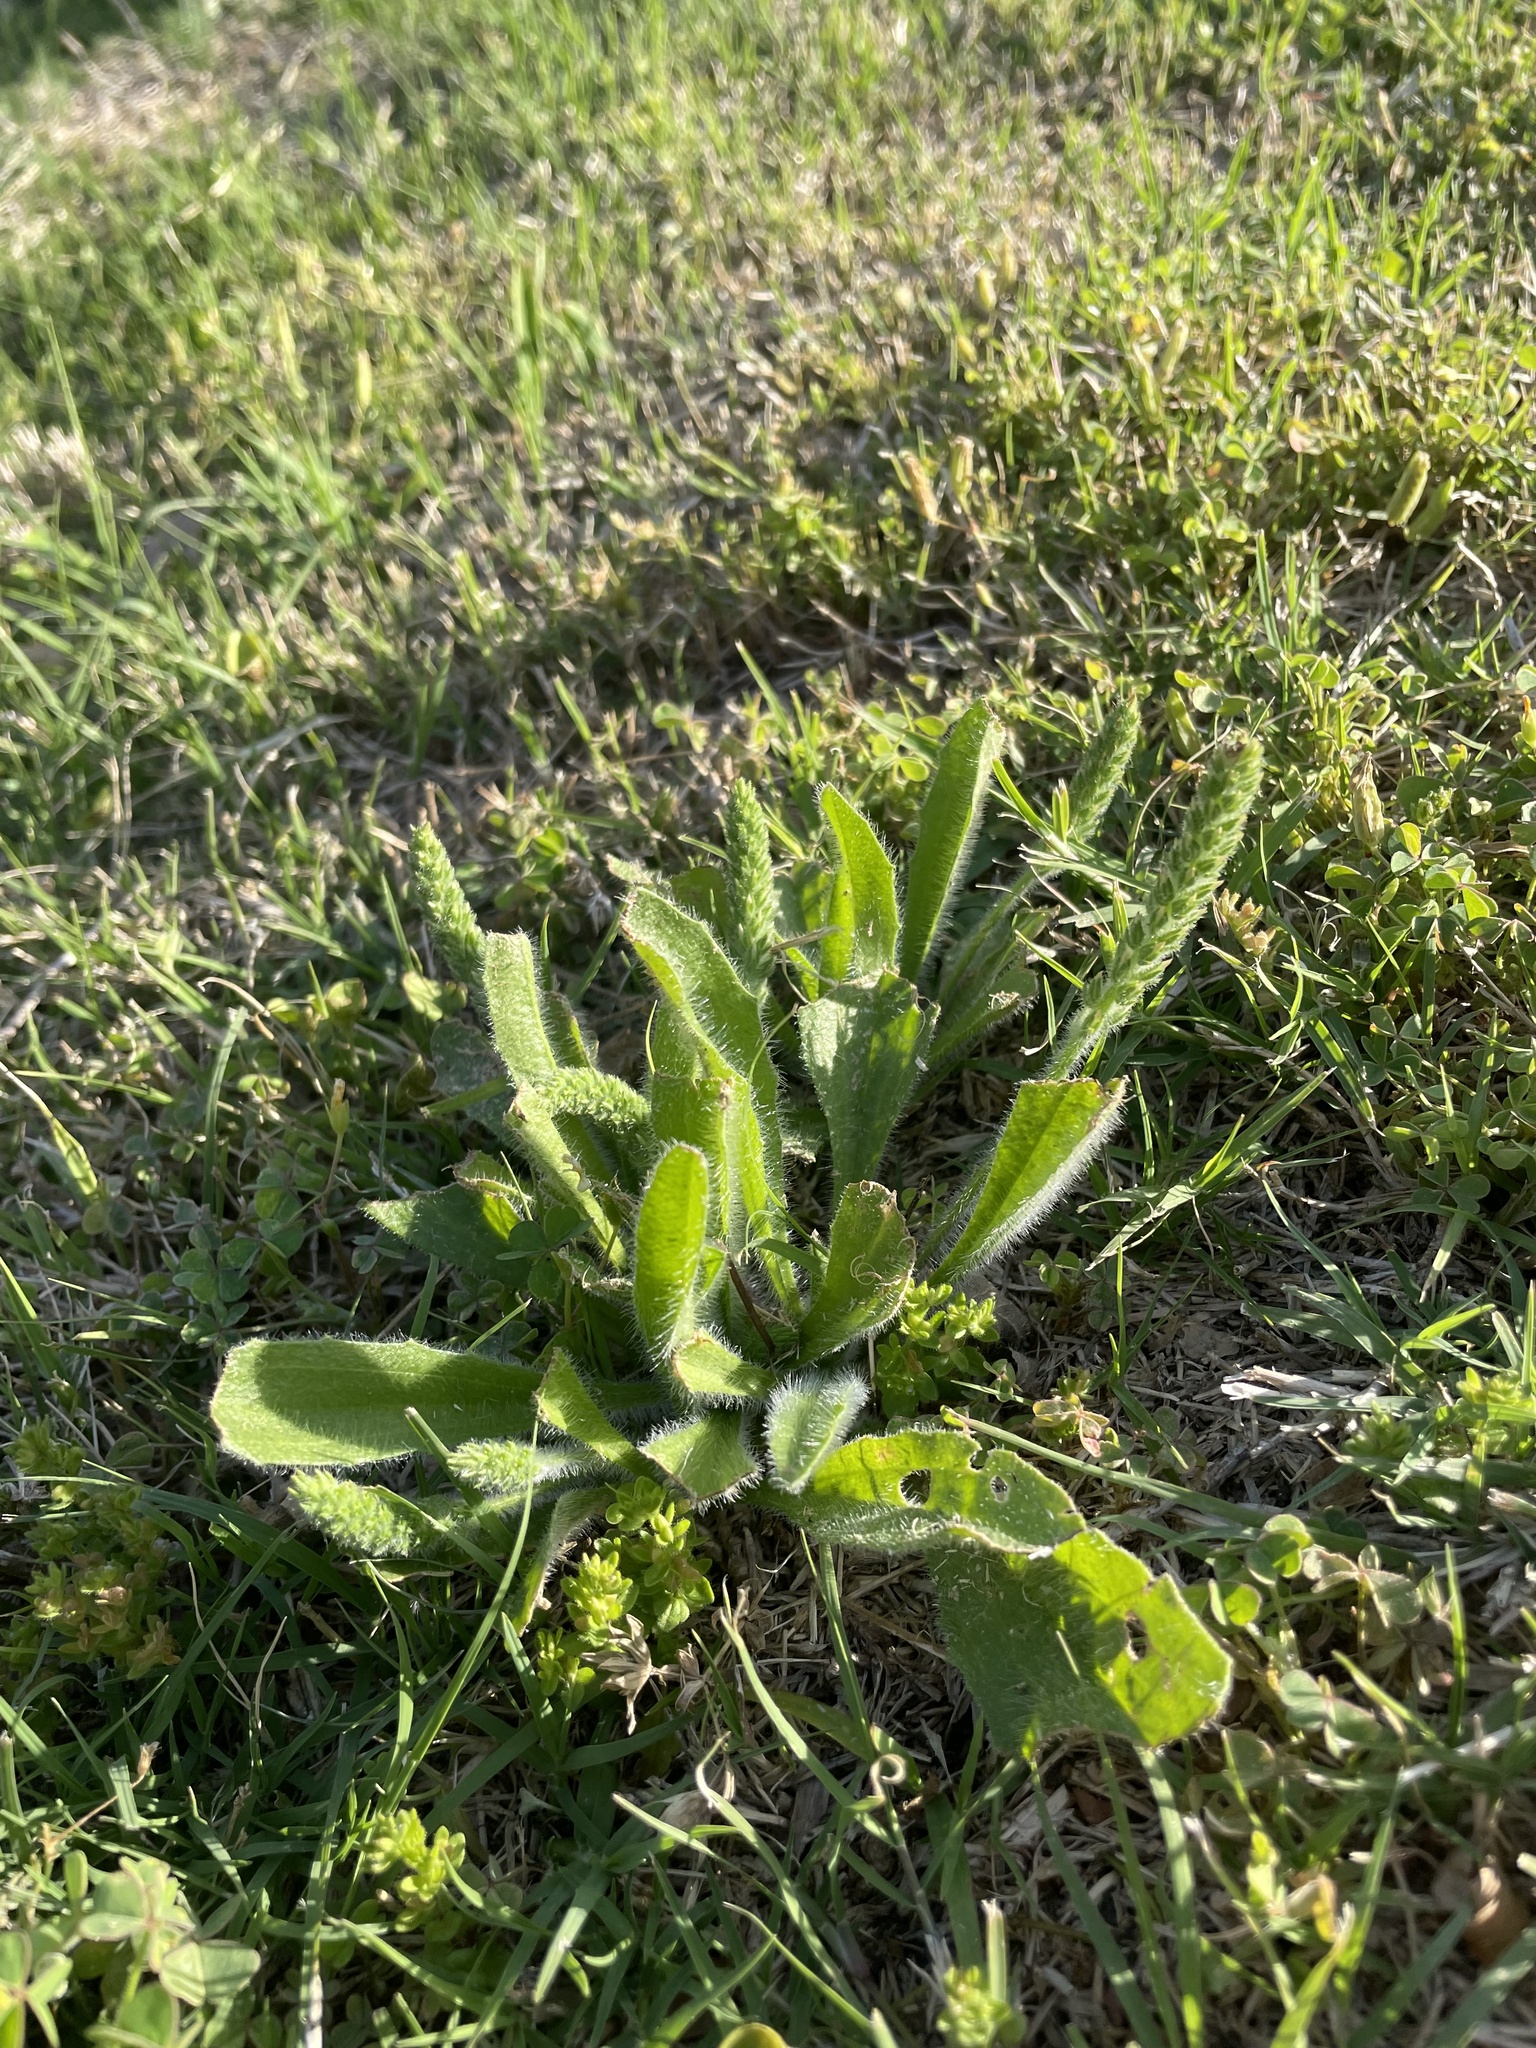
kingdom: Plantae
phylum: Tracheophyta
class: Magnoliopsida
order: Lamiales
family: Plantaginaceae
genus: Plantago
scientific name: Plantago rhodosperma
